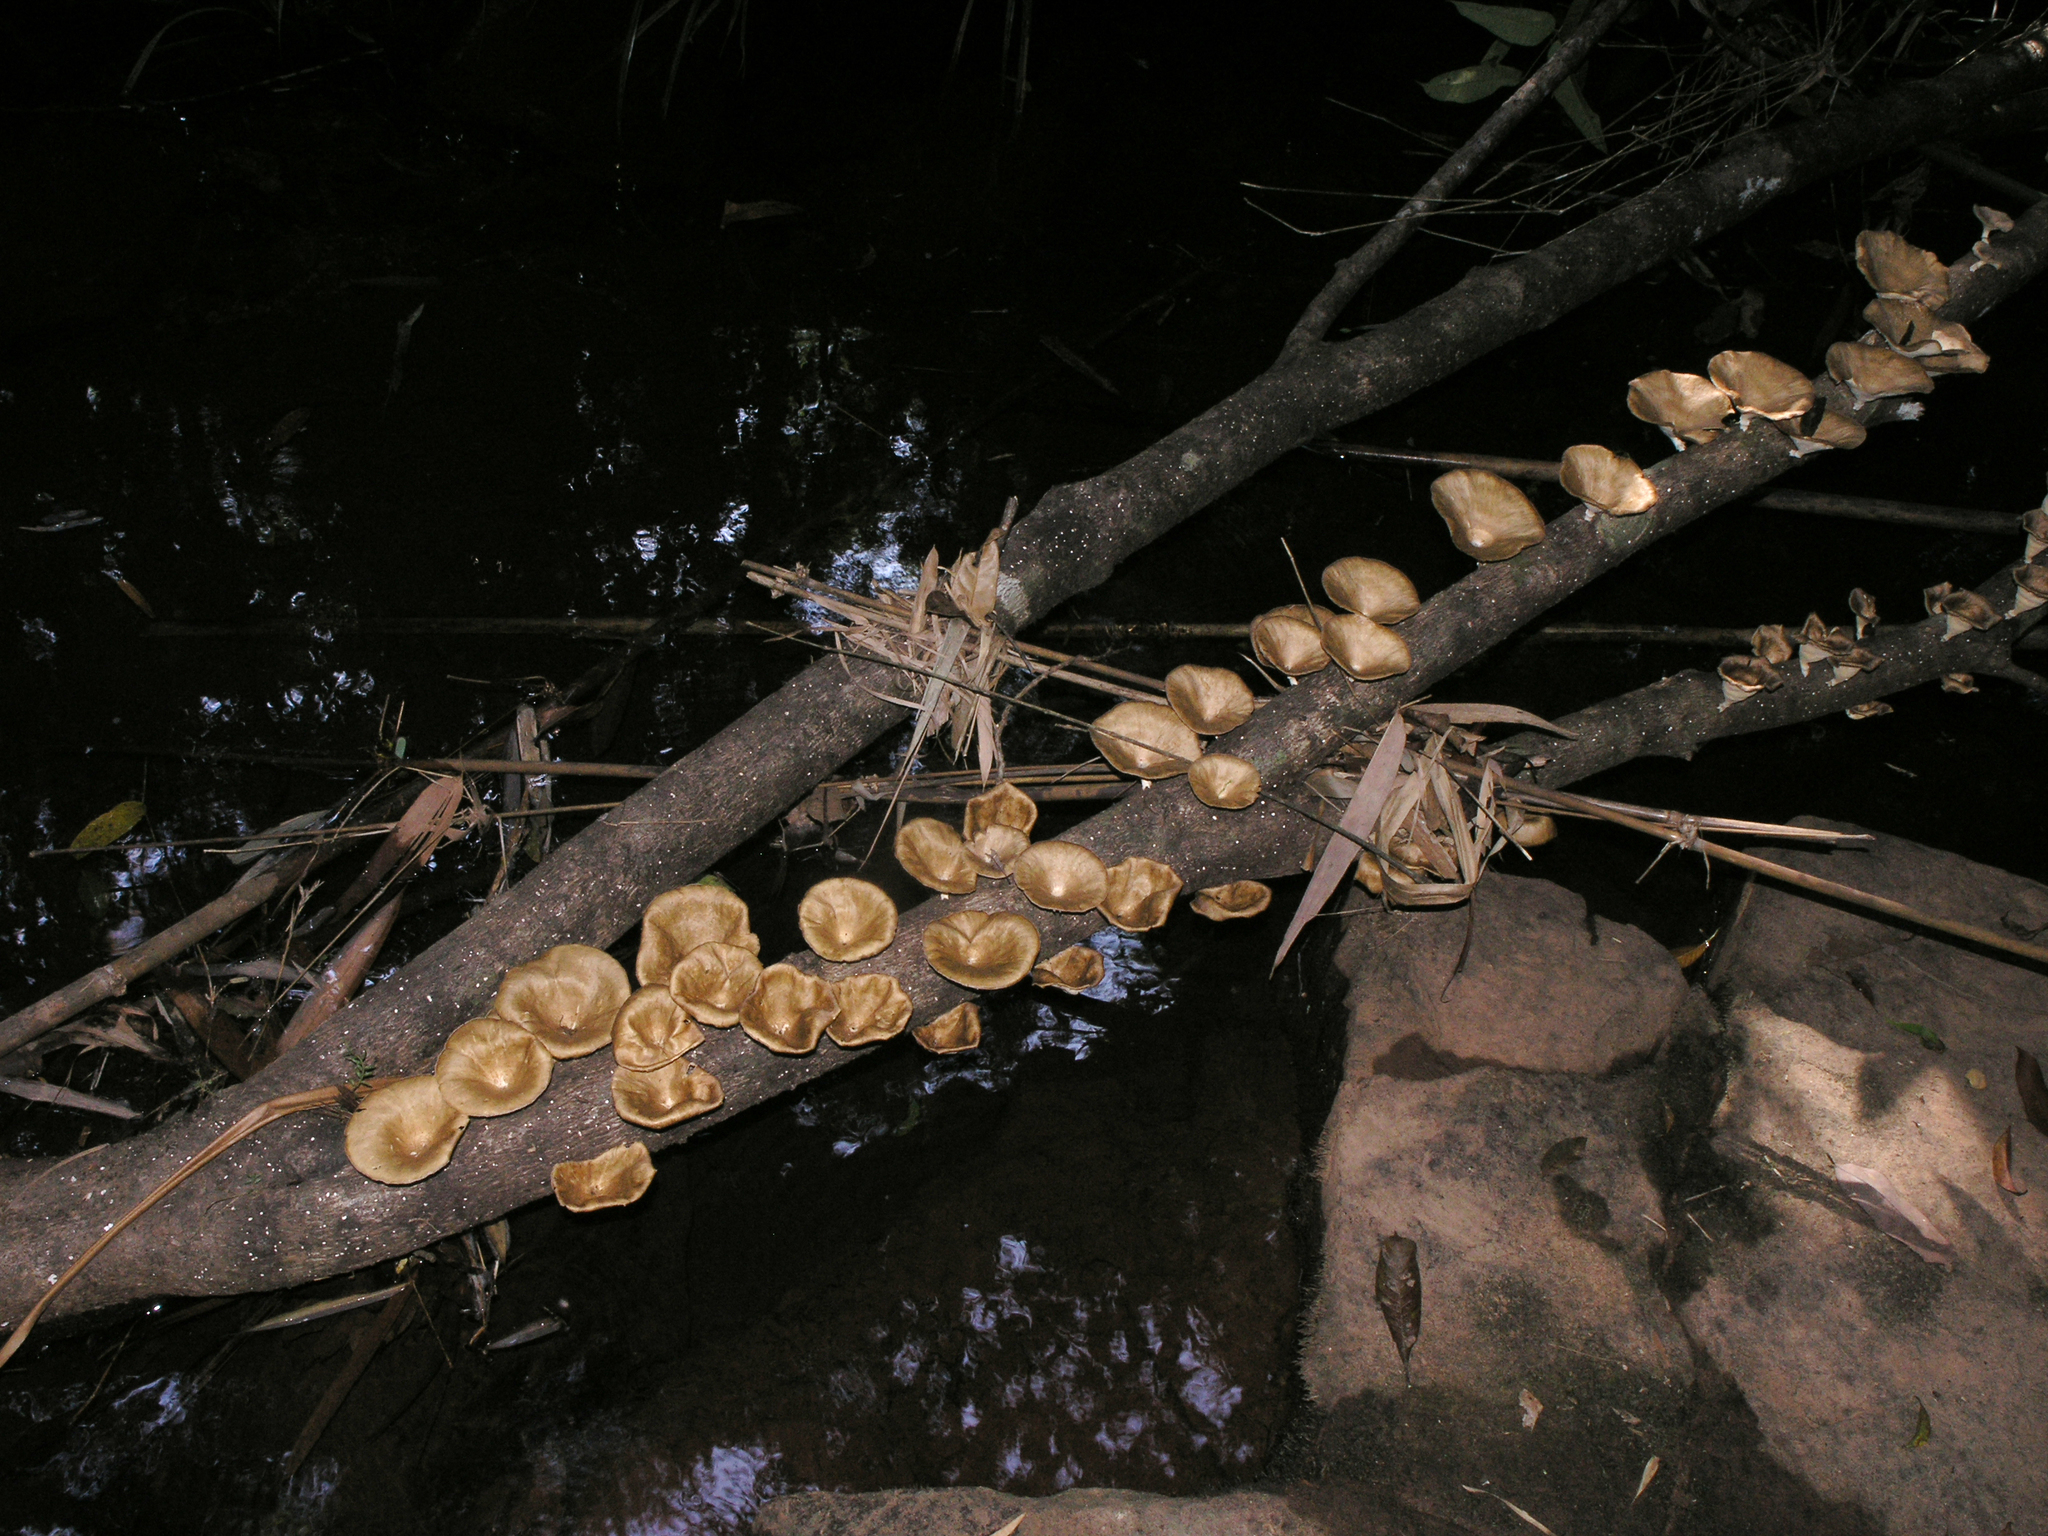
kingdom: Fungi
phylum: Basidiomycota
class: Agaricomycetes
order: Polyporales
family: Polyporaceae
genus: Lentinus
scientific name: Lentinus sajor-caju
